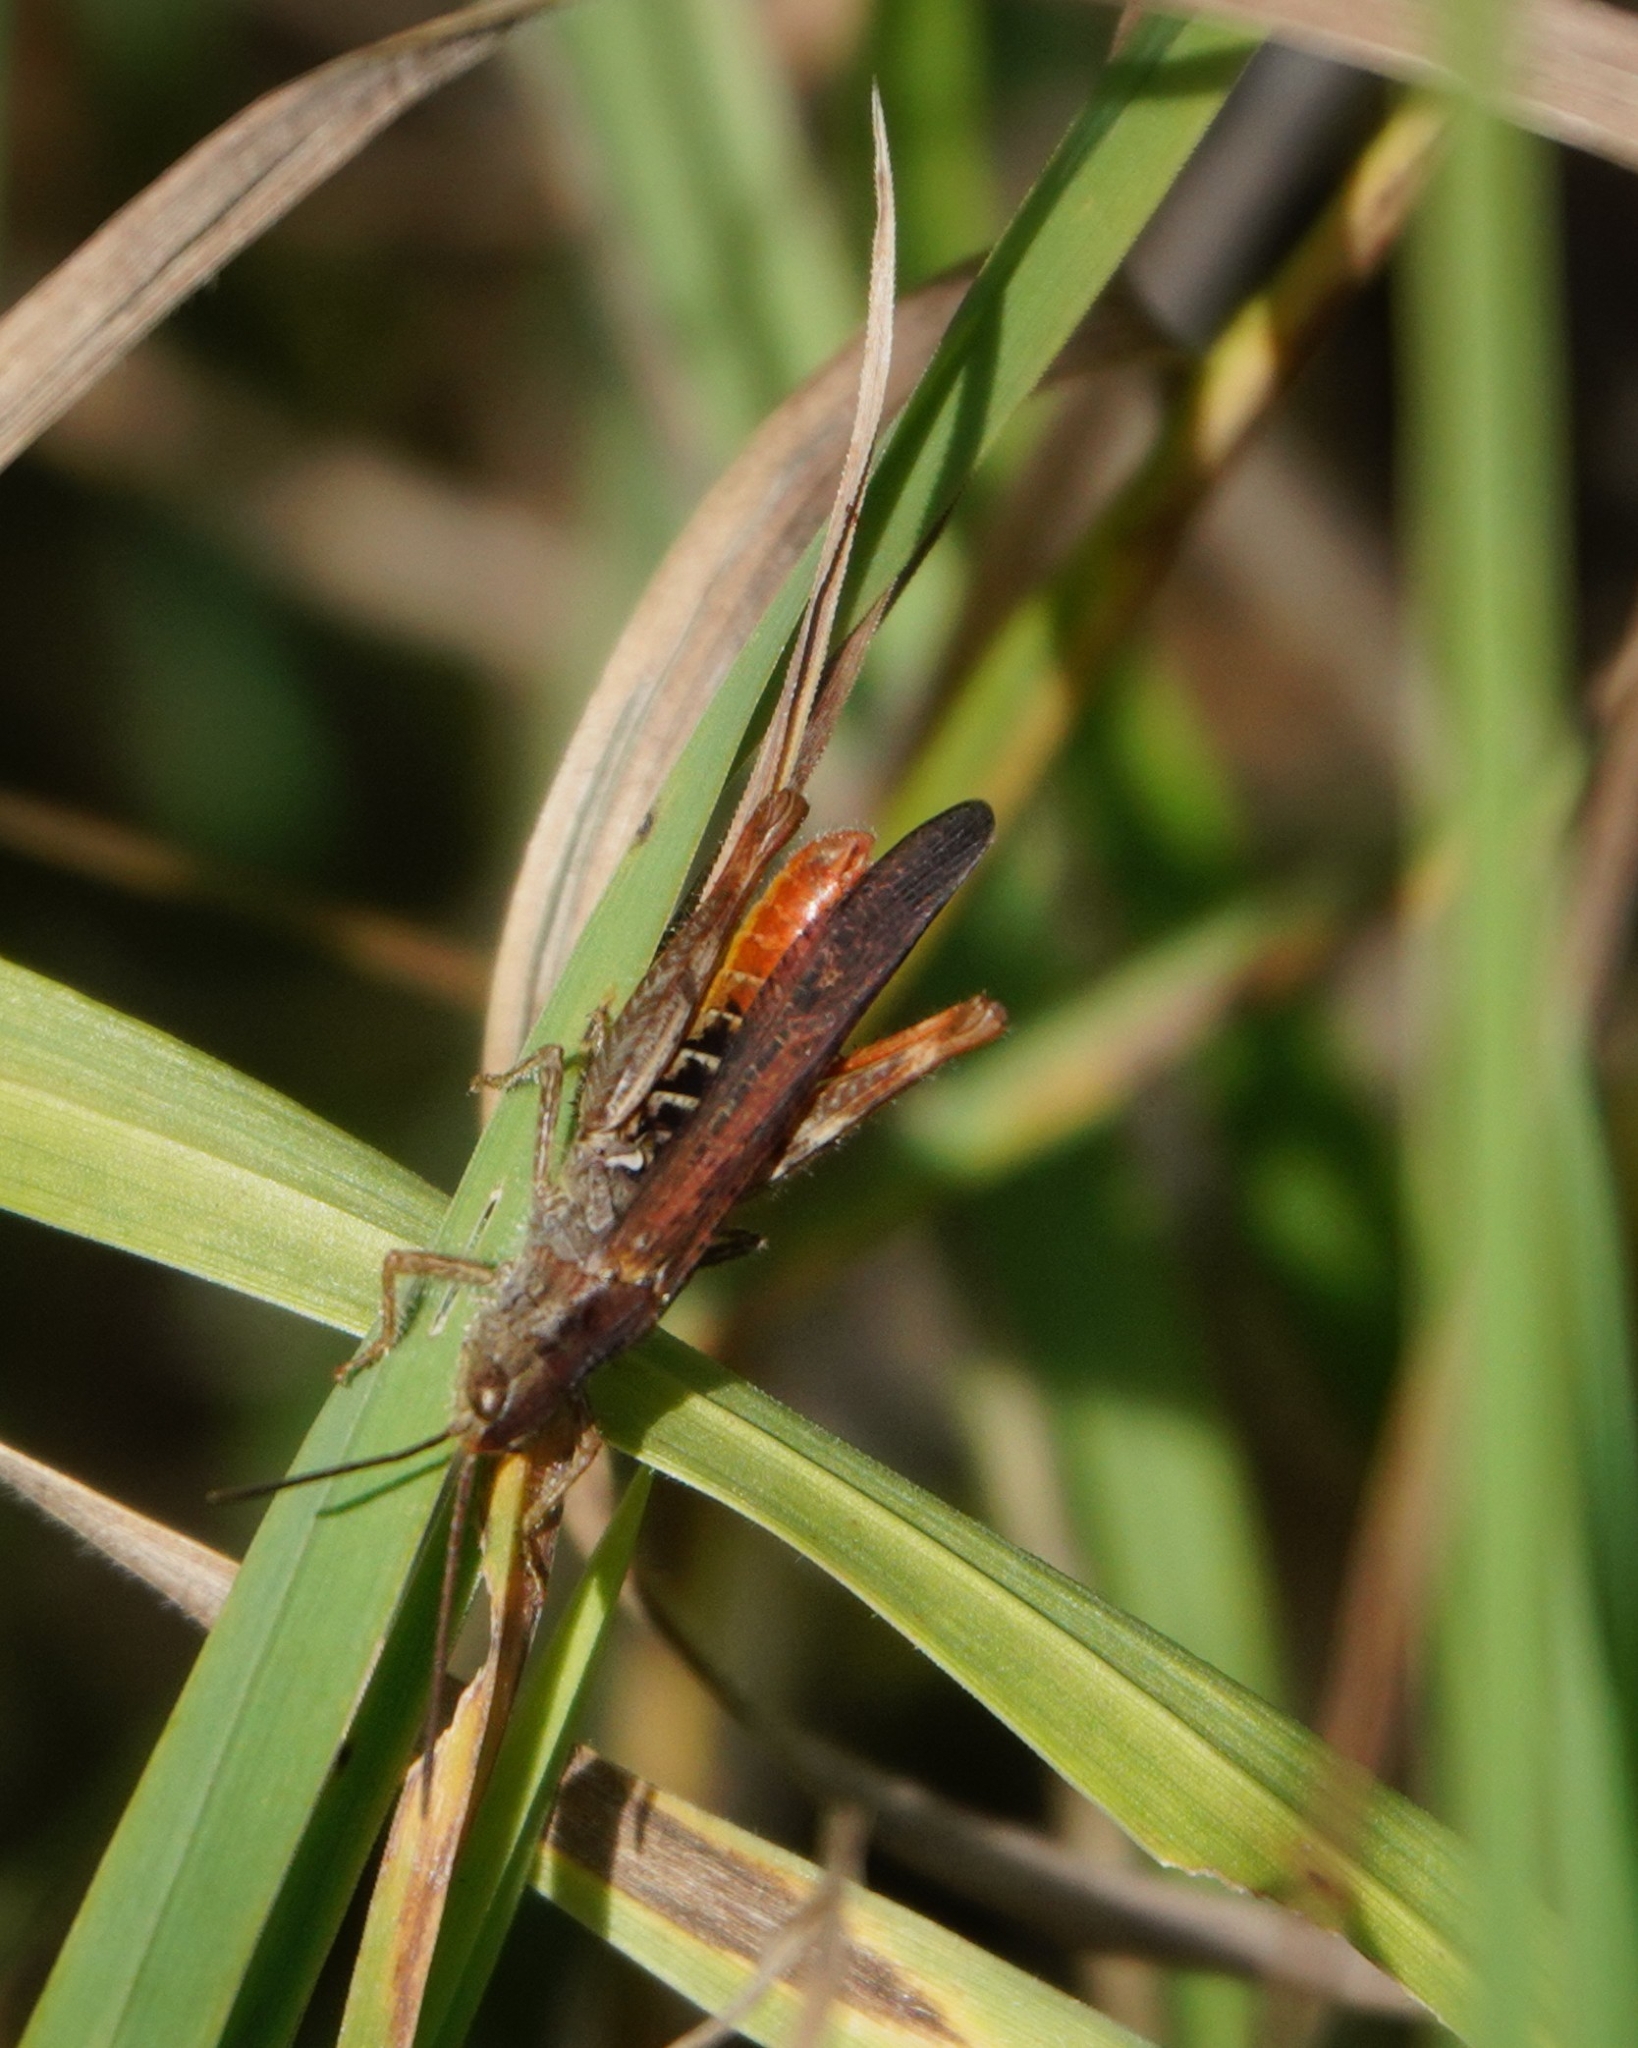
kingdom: Animalia
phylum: Arthropoda
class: Insecta
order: Orthoptera
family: Acrididae
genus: Chorthippus
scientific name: Chorthippus brunneus
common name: Field grasshopper
